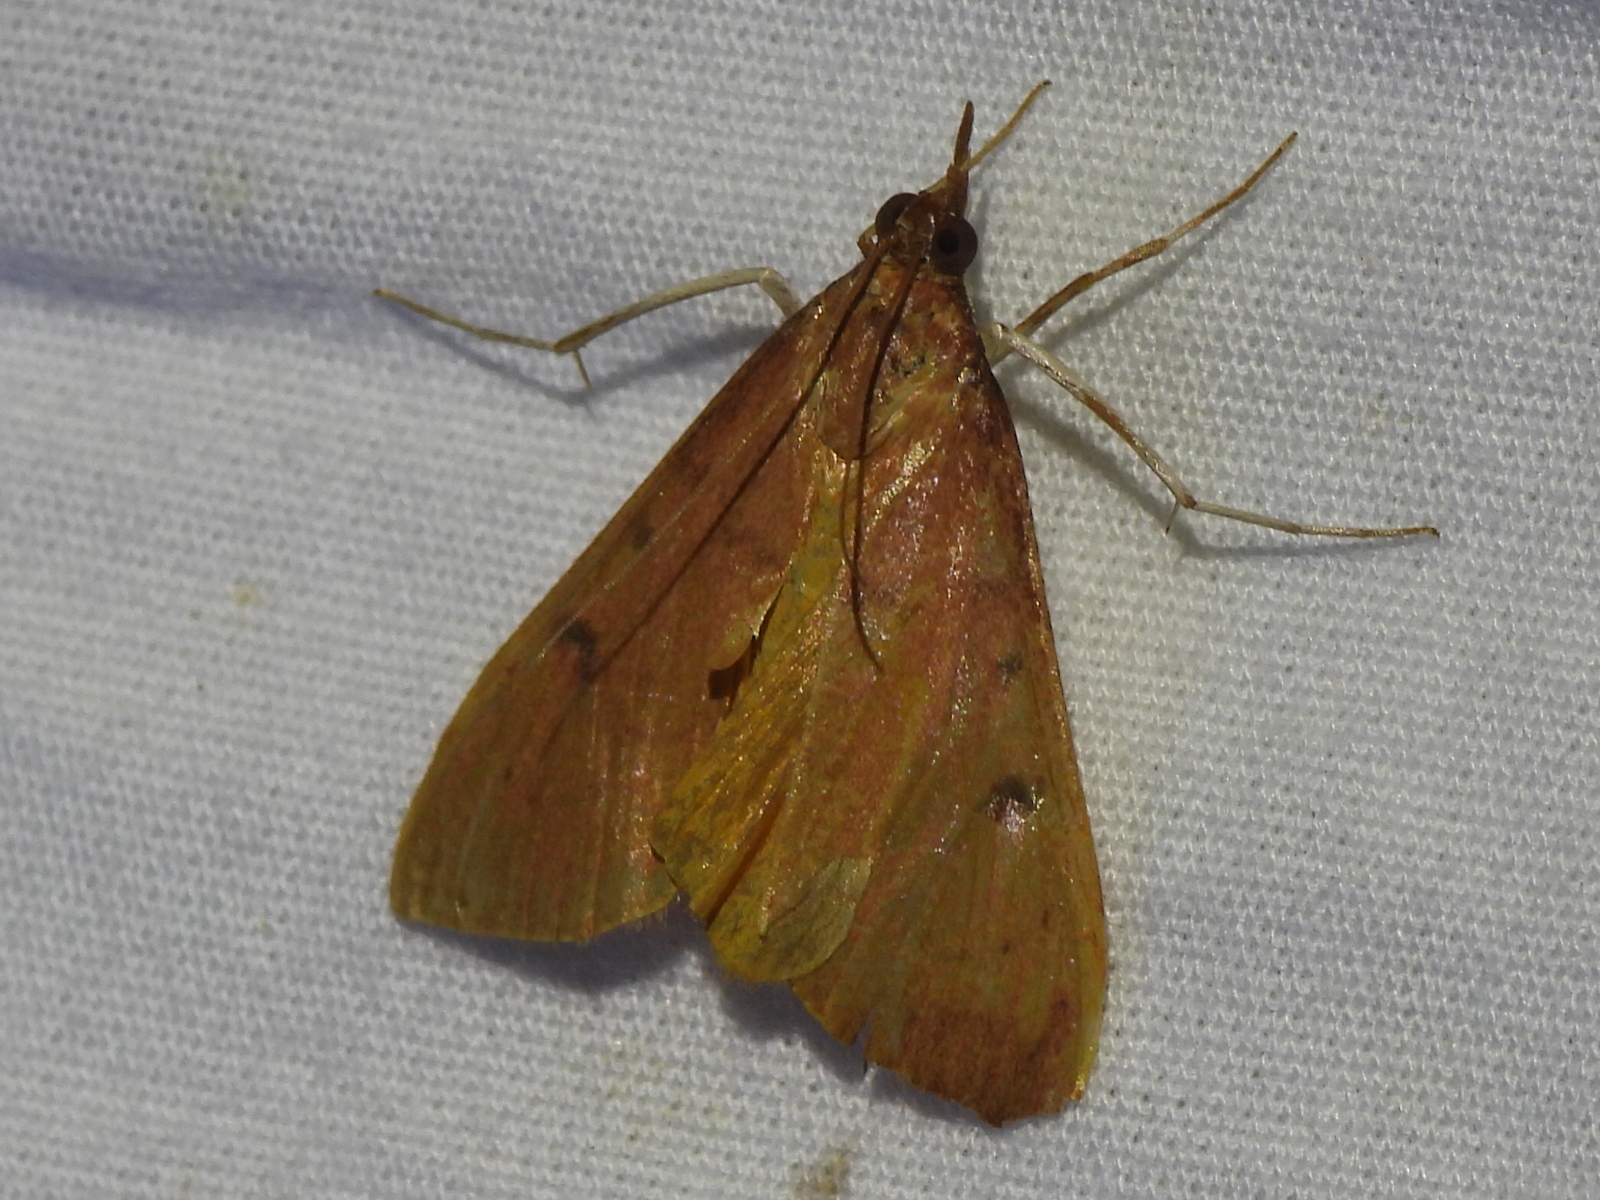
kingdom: Animalia
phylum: Arthropoda
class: Insecta
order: Lepidoptera
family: Crambidae
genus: Uresiphita
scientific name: Uresiphita reversalis
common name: Genista broom moth
